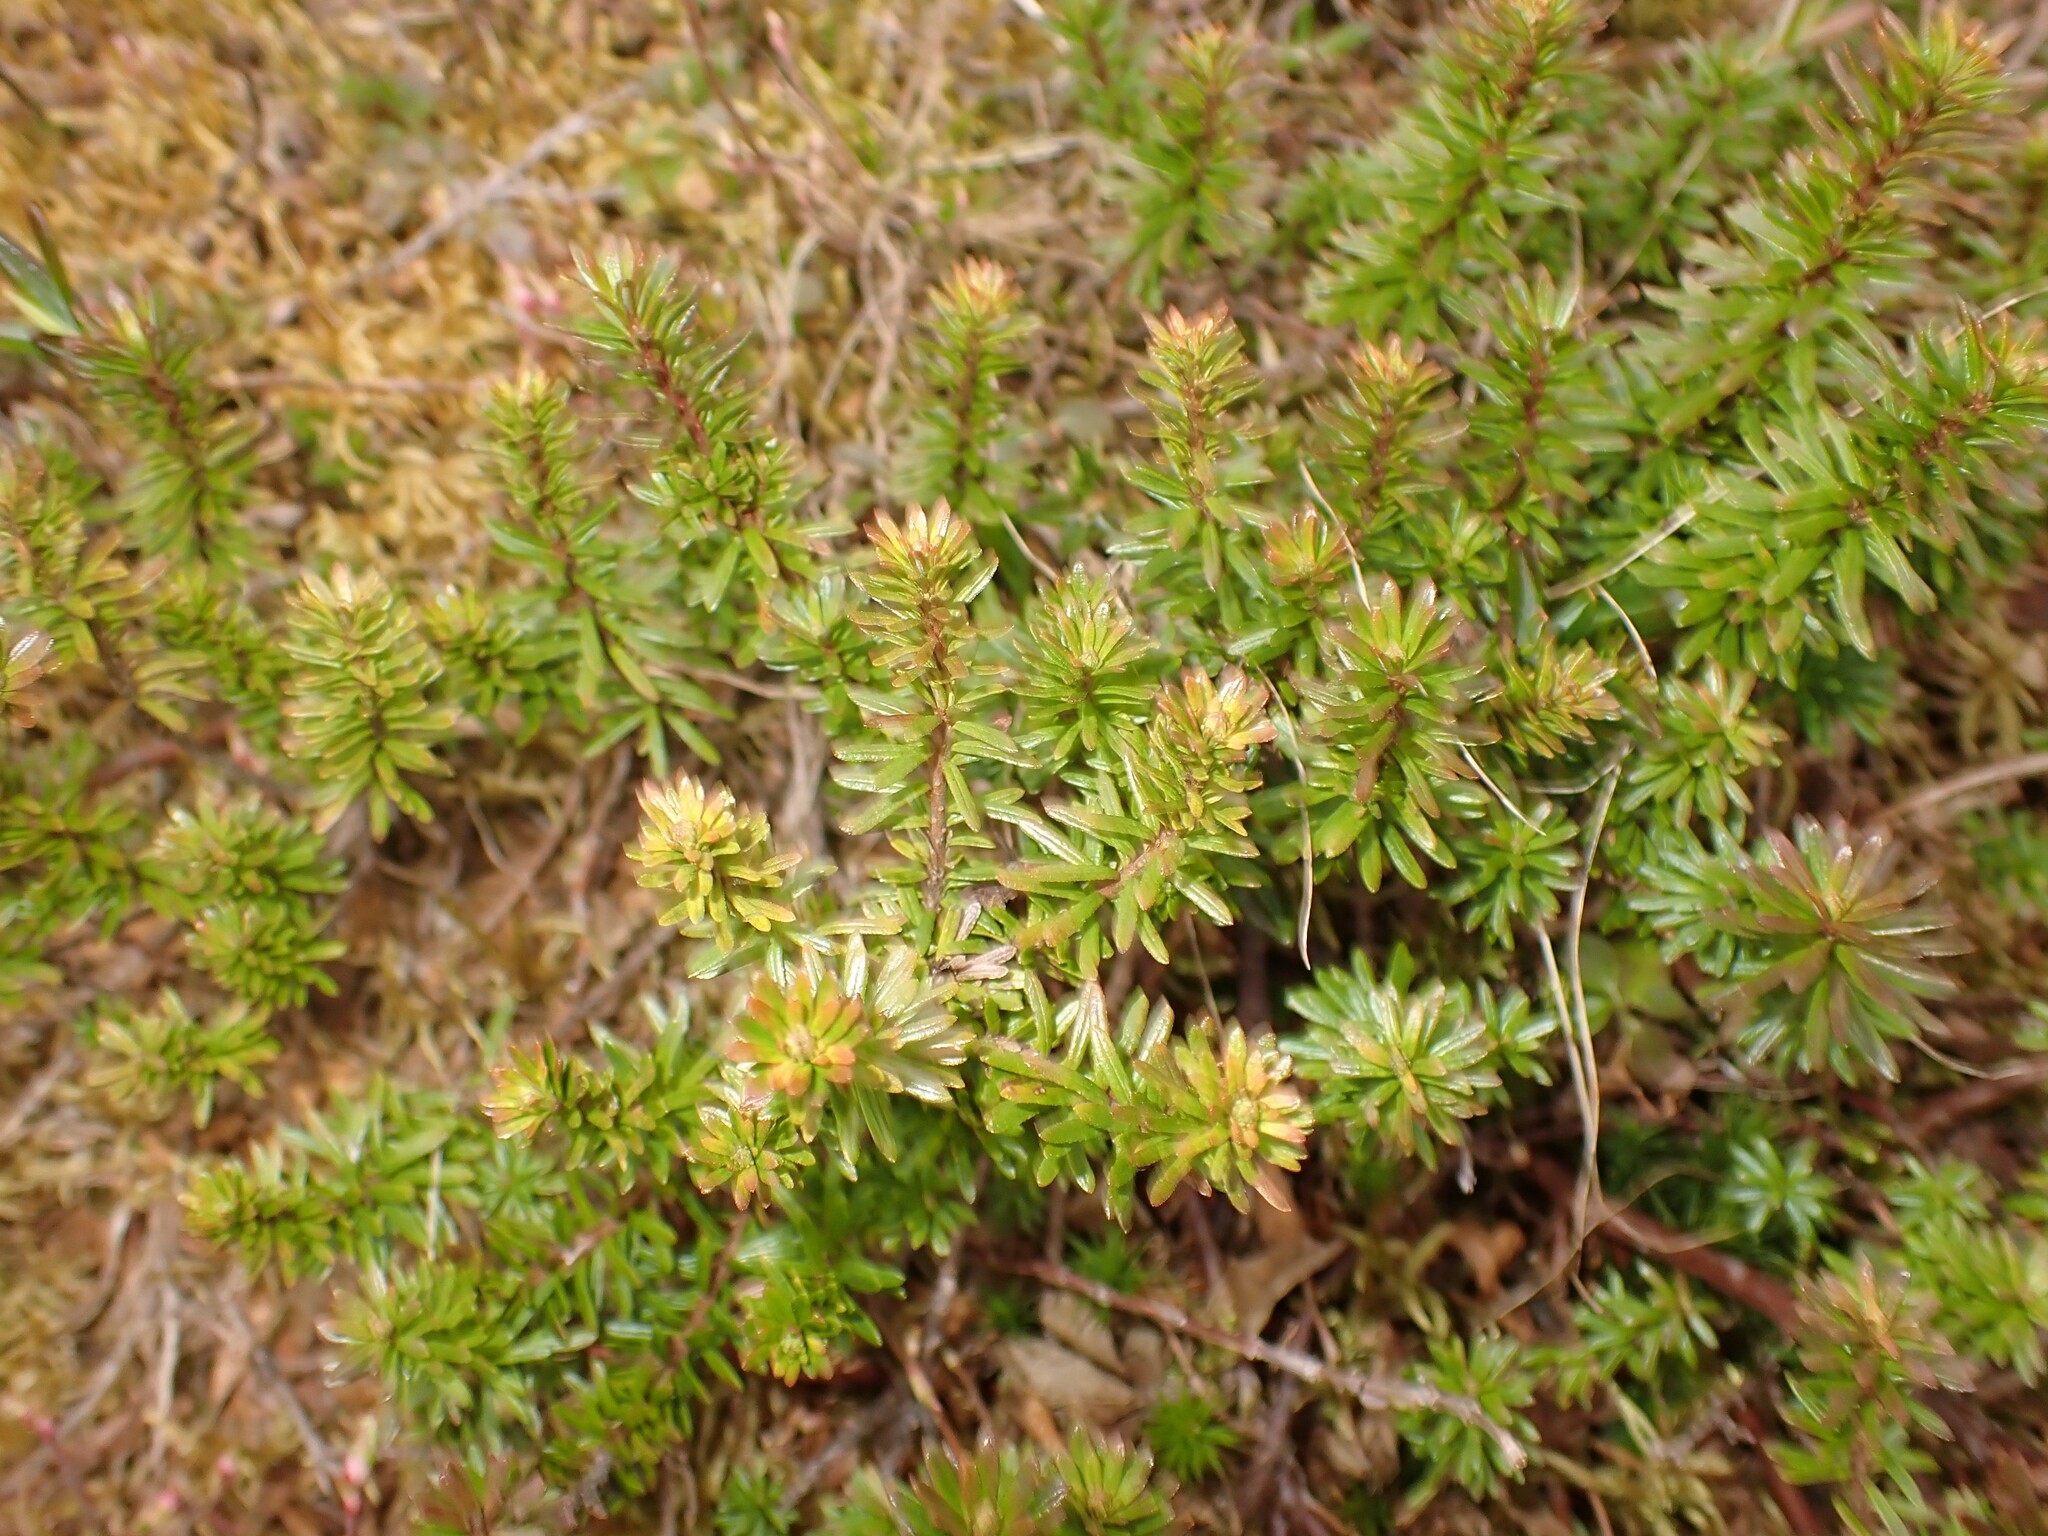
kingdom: Plantae
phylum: Tracheophyta
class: Magnoliopsida
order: Ericales
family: Ericaceae
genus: Phyllodoce
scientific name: Phyllodoce caerulea
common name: Blue heath
